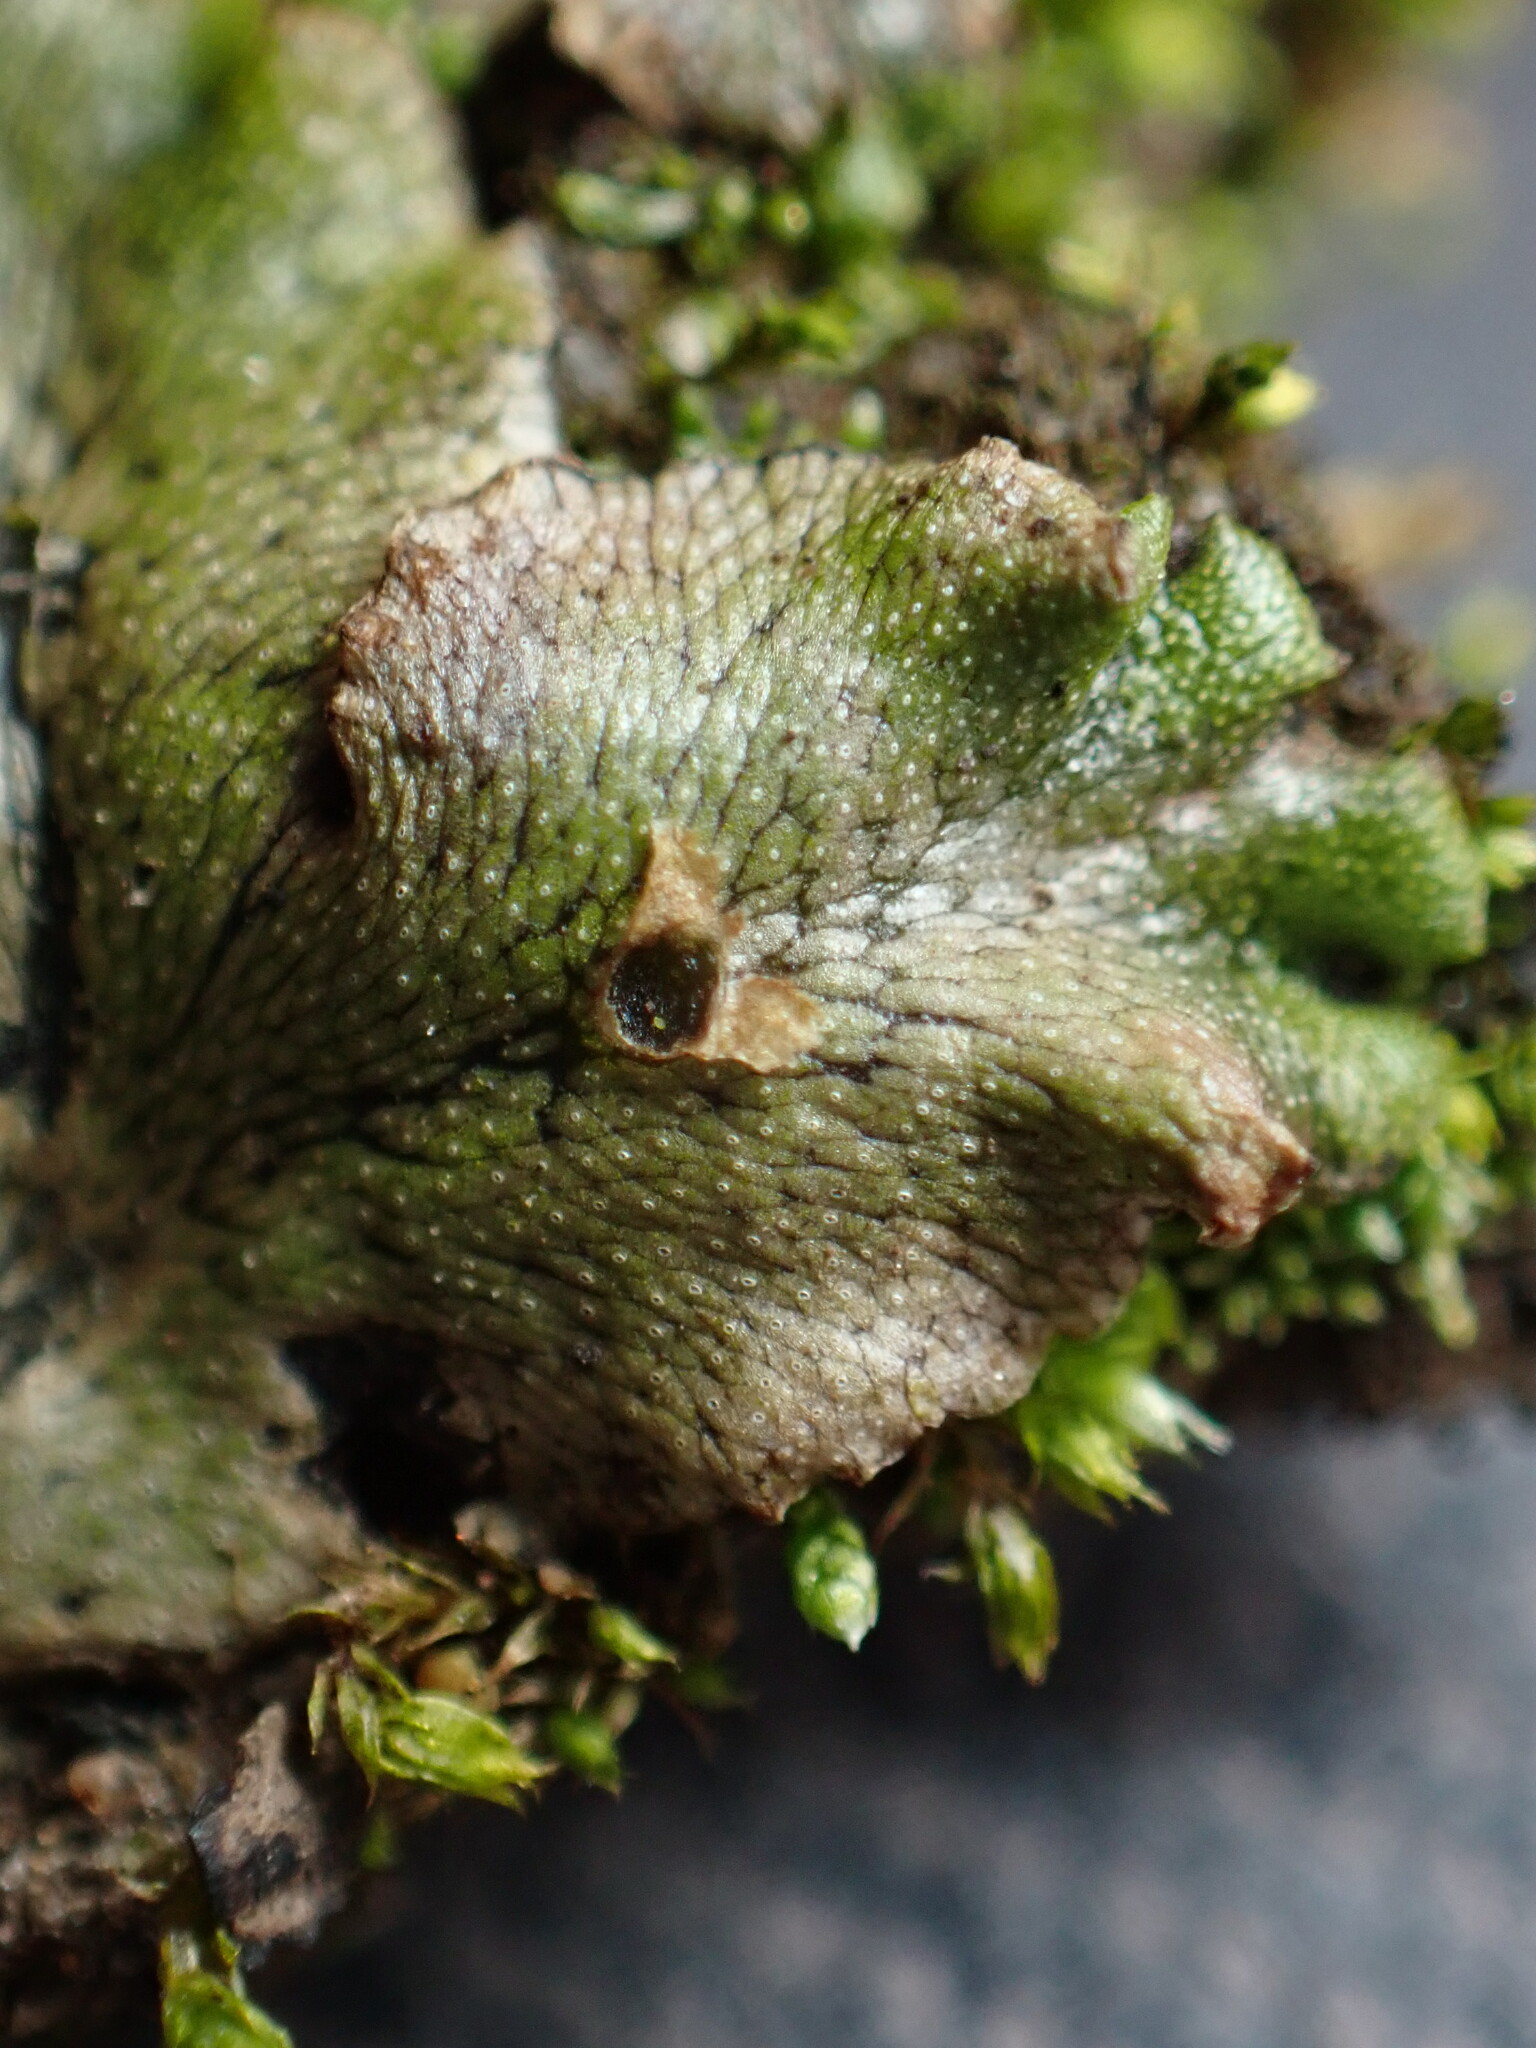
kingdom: Plantae
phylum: Marchantiophyta
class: Marchantiopsida
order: Marchantiales
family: Marchantiaceae
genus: Marchantia
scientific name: Marchantia polymorpha
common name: Common liverwort
